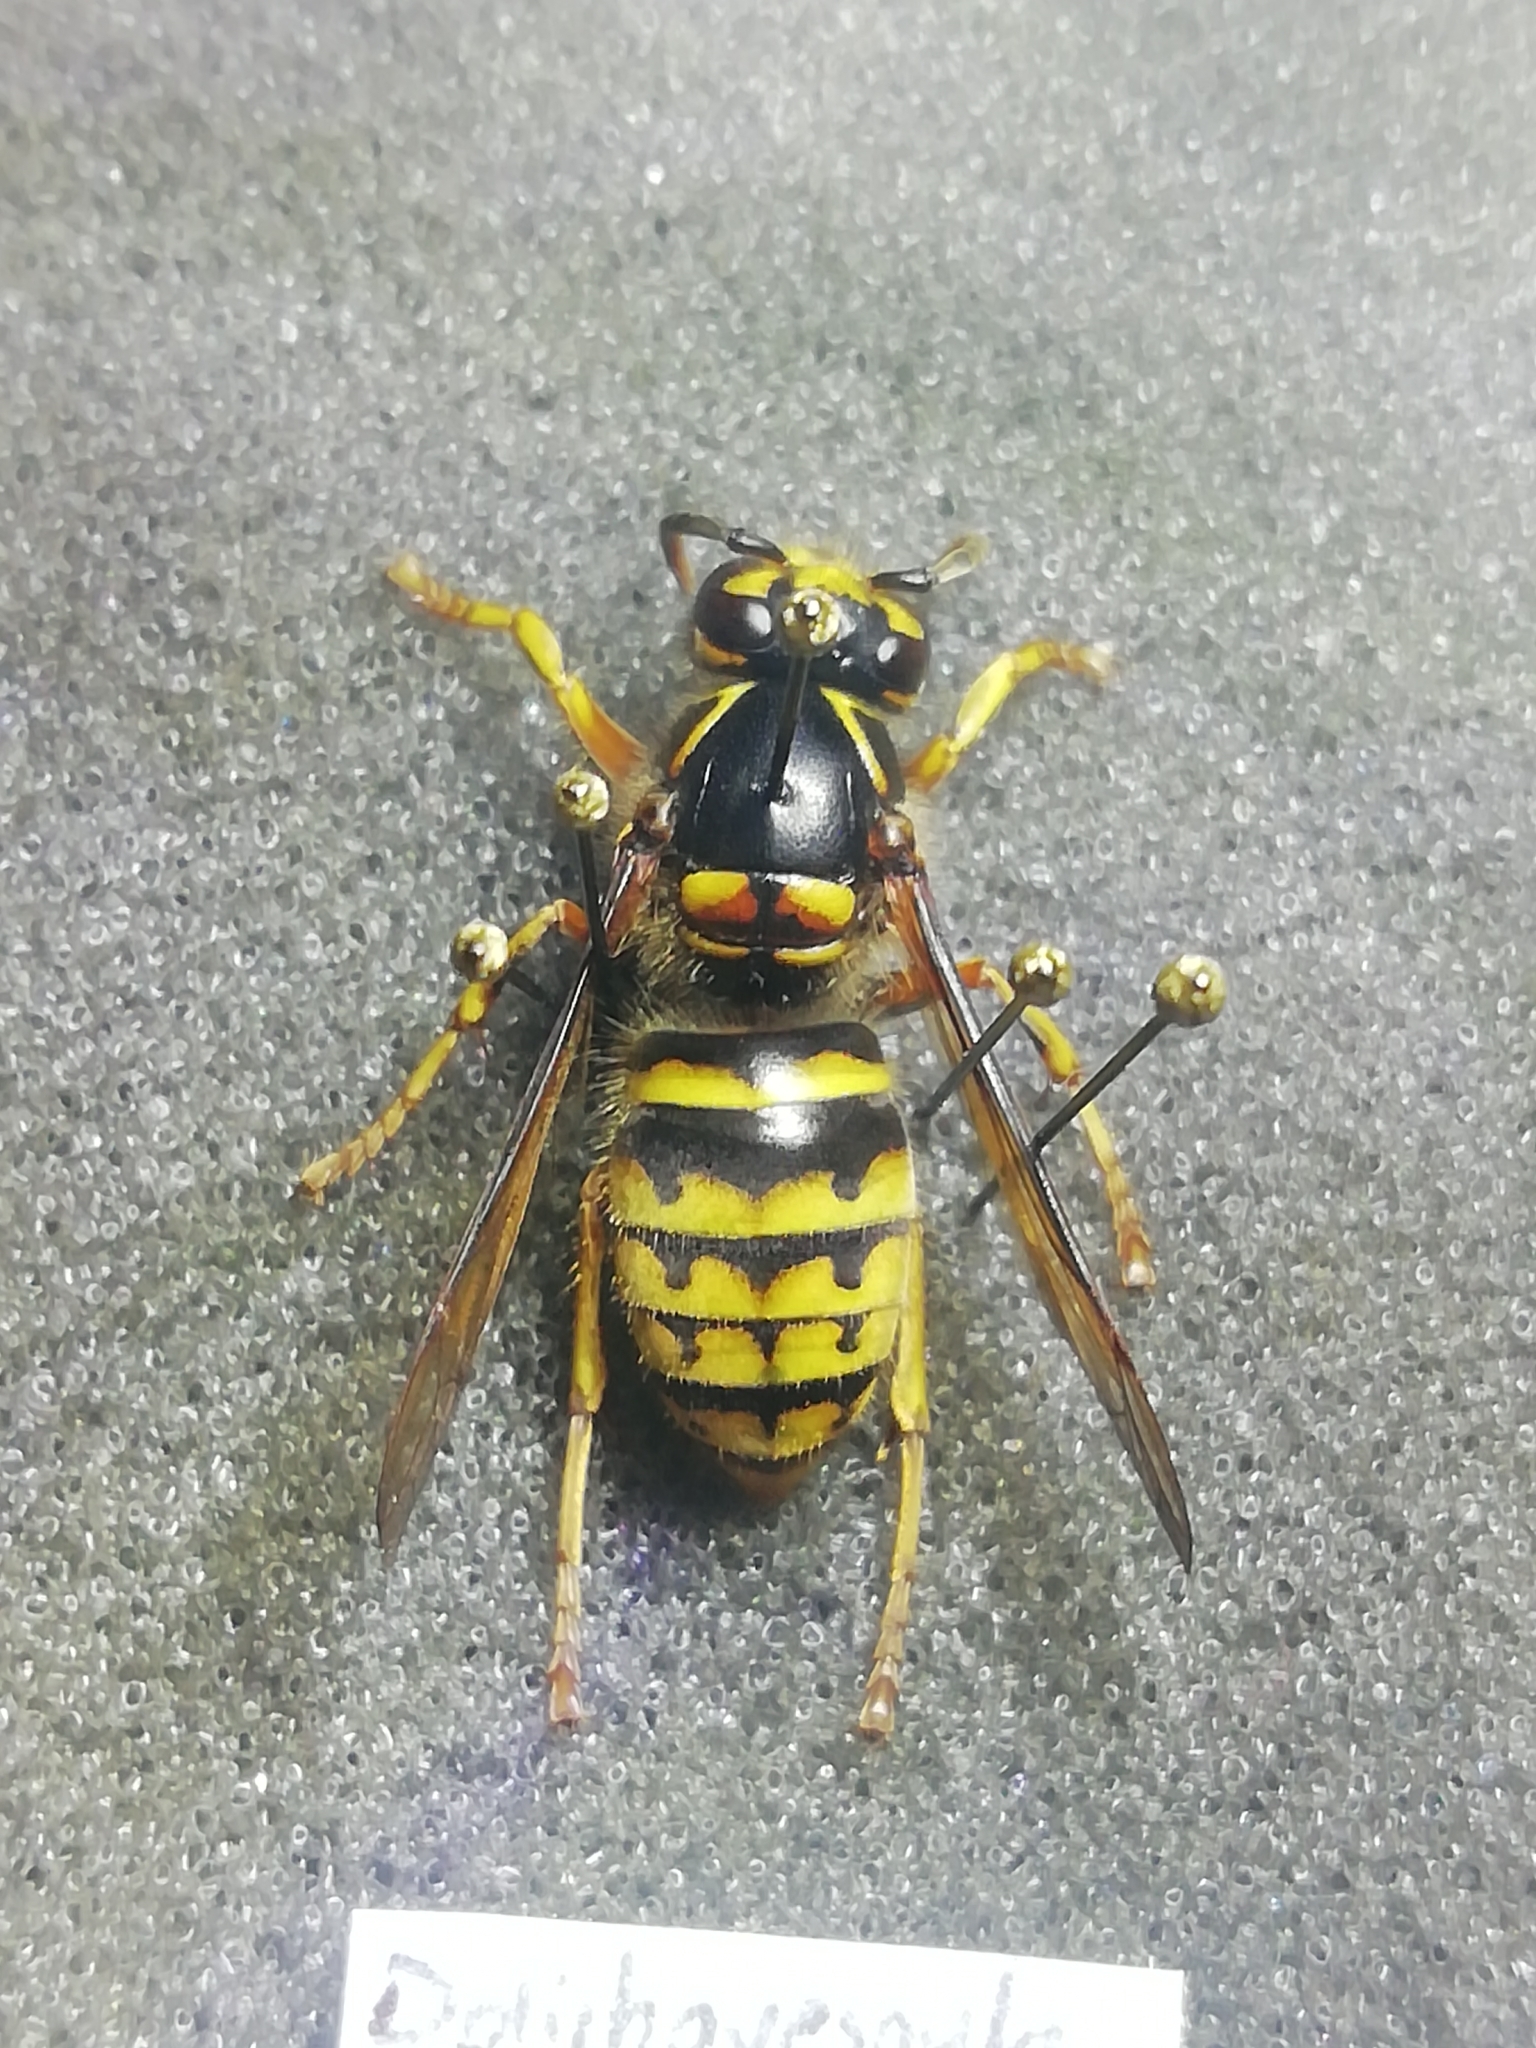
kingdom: Animalia
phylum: Arthropoda
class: Insecta
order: Hymenoptera
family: Vespidae
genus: Dolichovespula
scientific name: Dolichovespula media
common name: Median wasp
